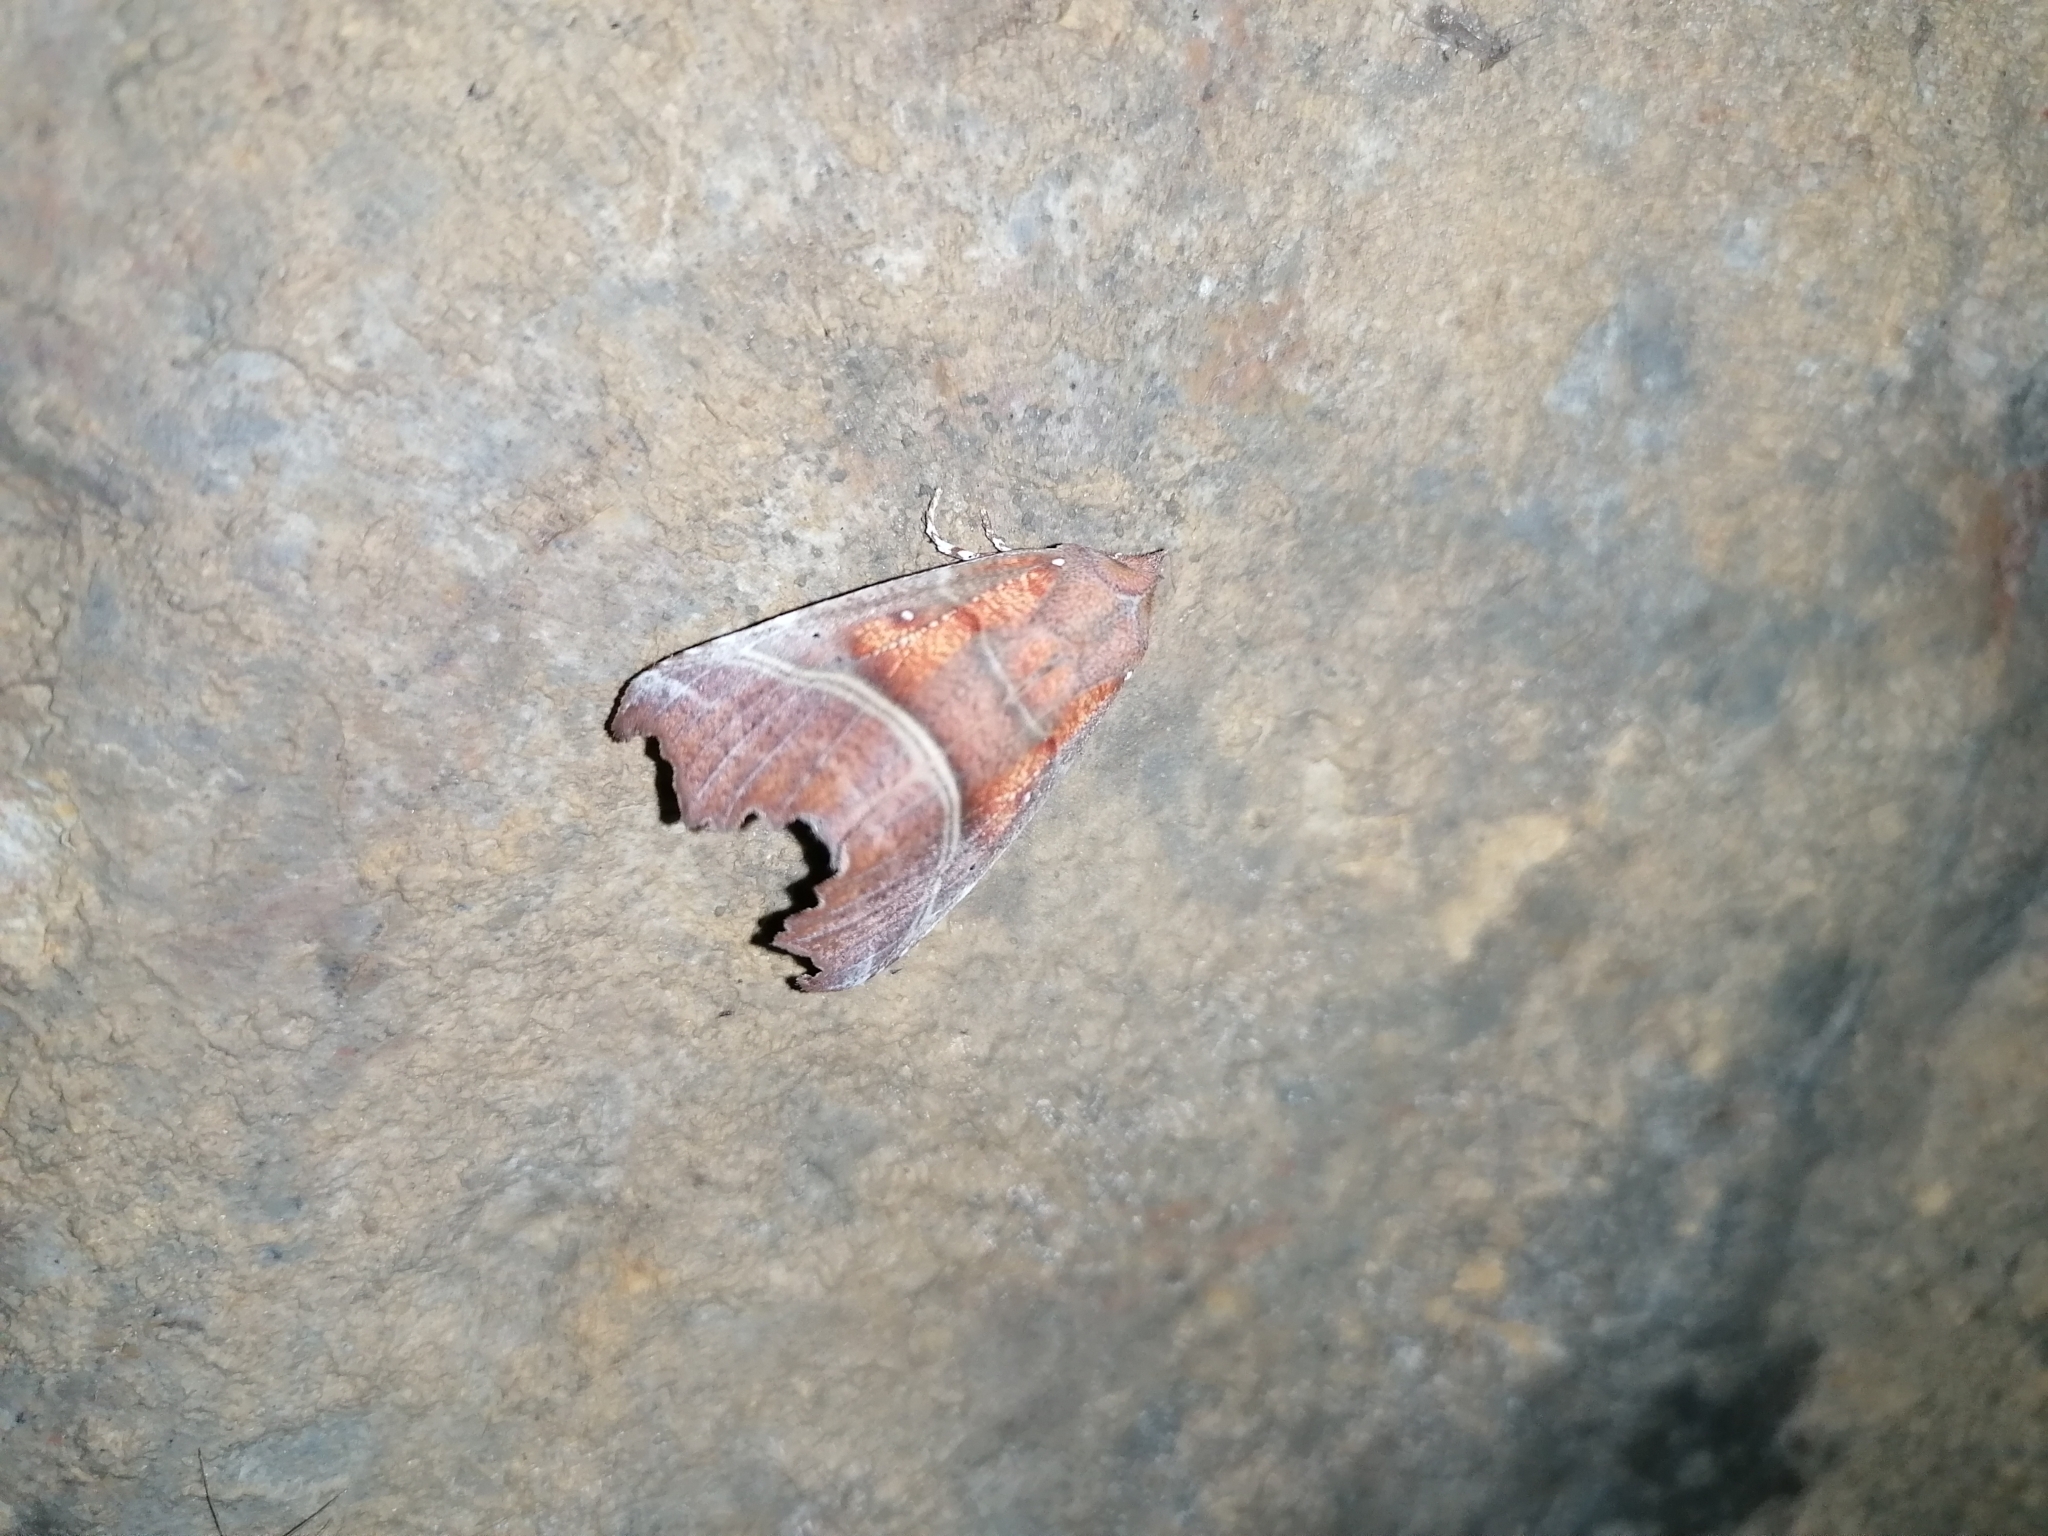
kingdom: Animalia
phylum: Arthropoda
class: Insecta
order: Lepidoptera
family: Erebidae
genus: Scoliopteryx
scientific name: Scoliopteryx libatrix
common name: Herald
